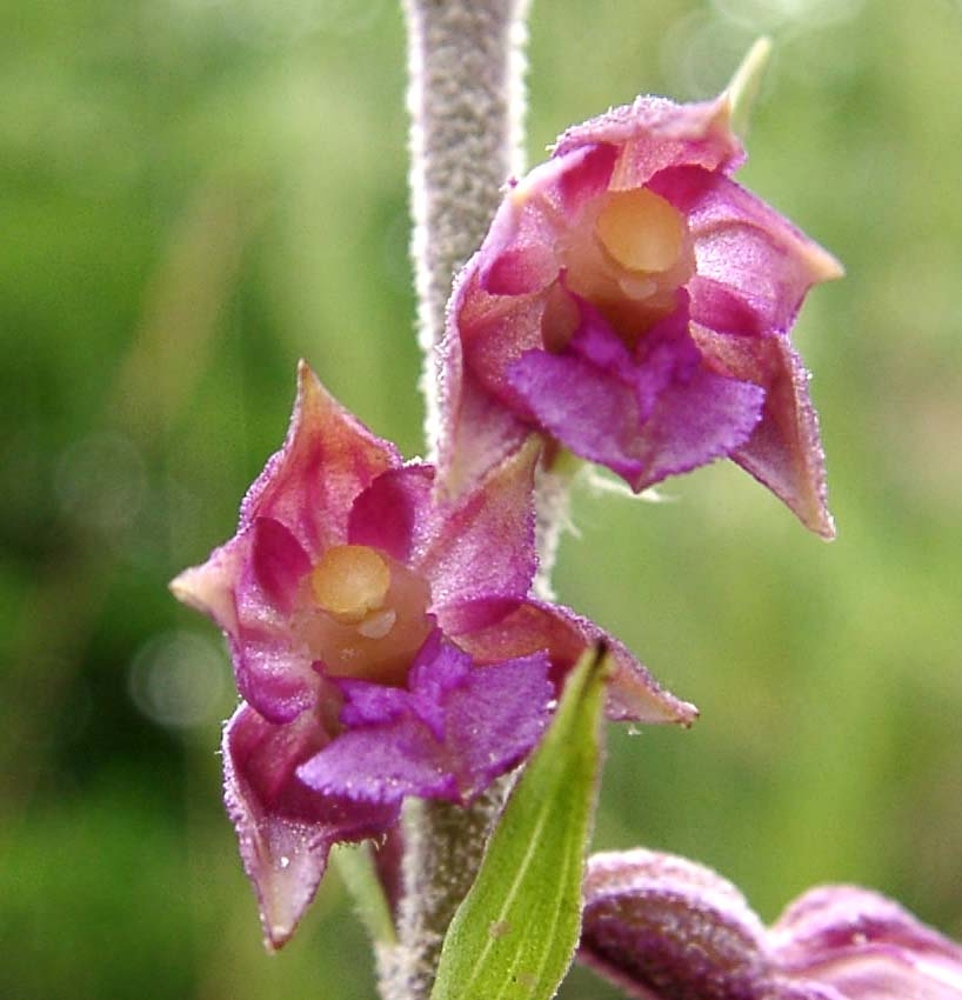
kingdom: Plantae
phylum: Tracheophyta
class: Liliopsida
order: Asparagales
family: Orchidaceae
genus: Epipactis
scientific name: Epipactis atrorubens
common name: Dark-red helleborine
